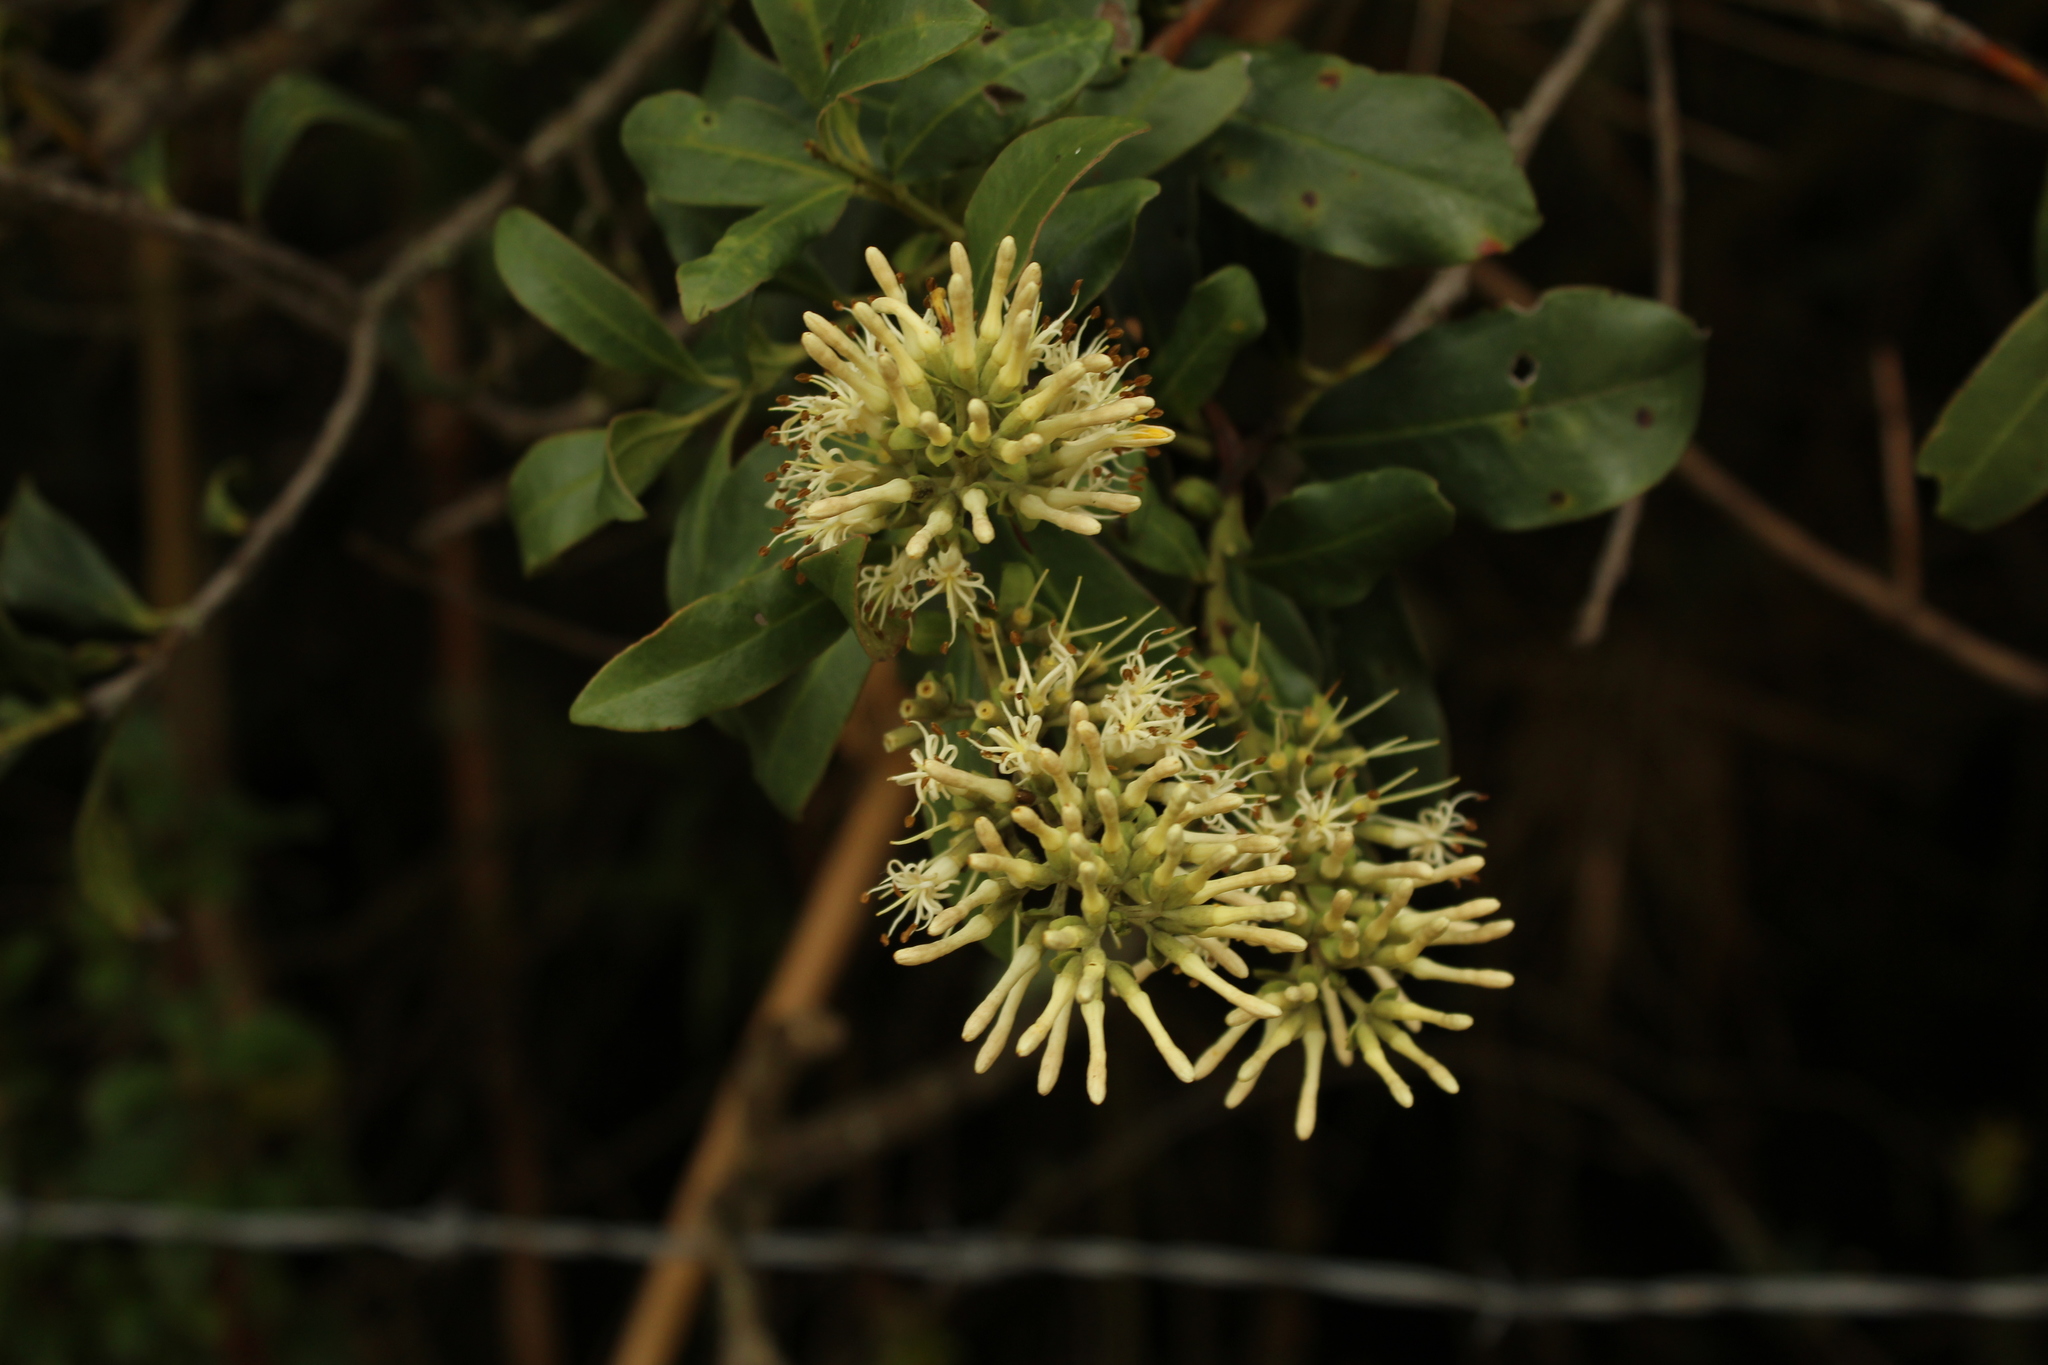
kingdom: Plantae
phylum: Tracheophyta
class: Magnoliopsida
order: Santalales
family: Loranthaceae
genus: Gaiadendron
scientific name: Gaiadendron punctatum
